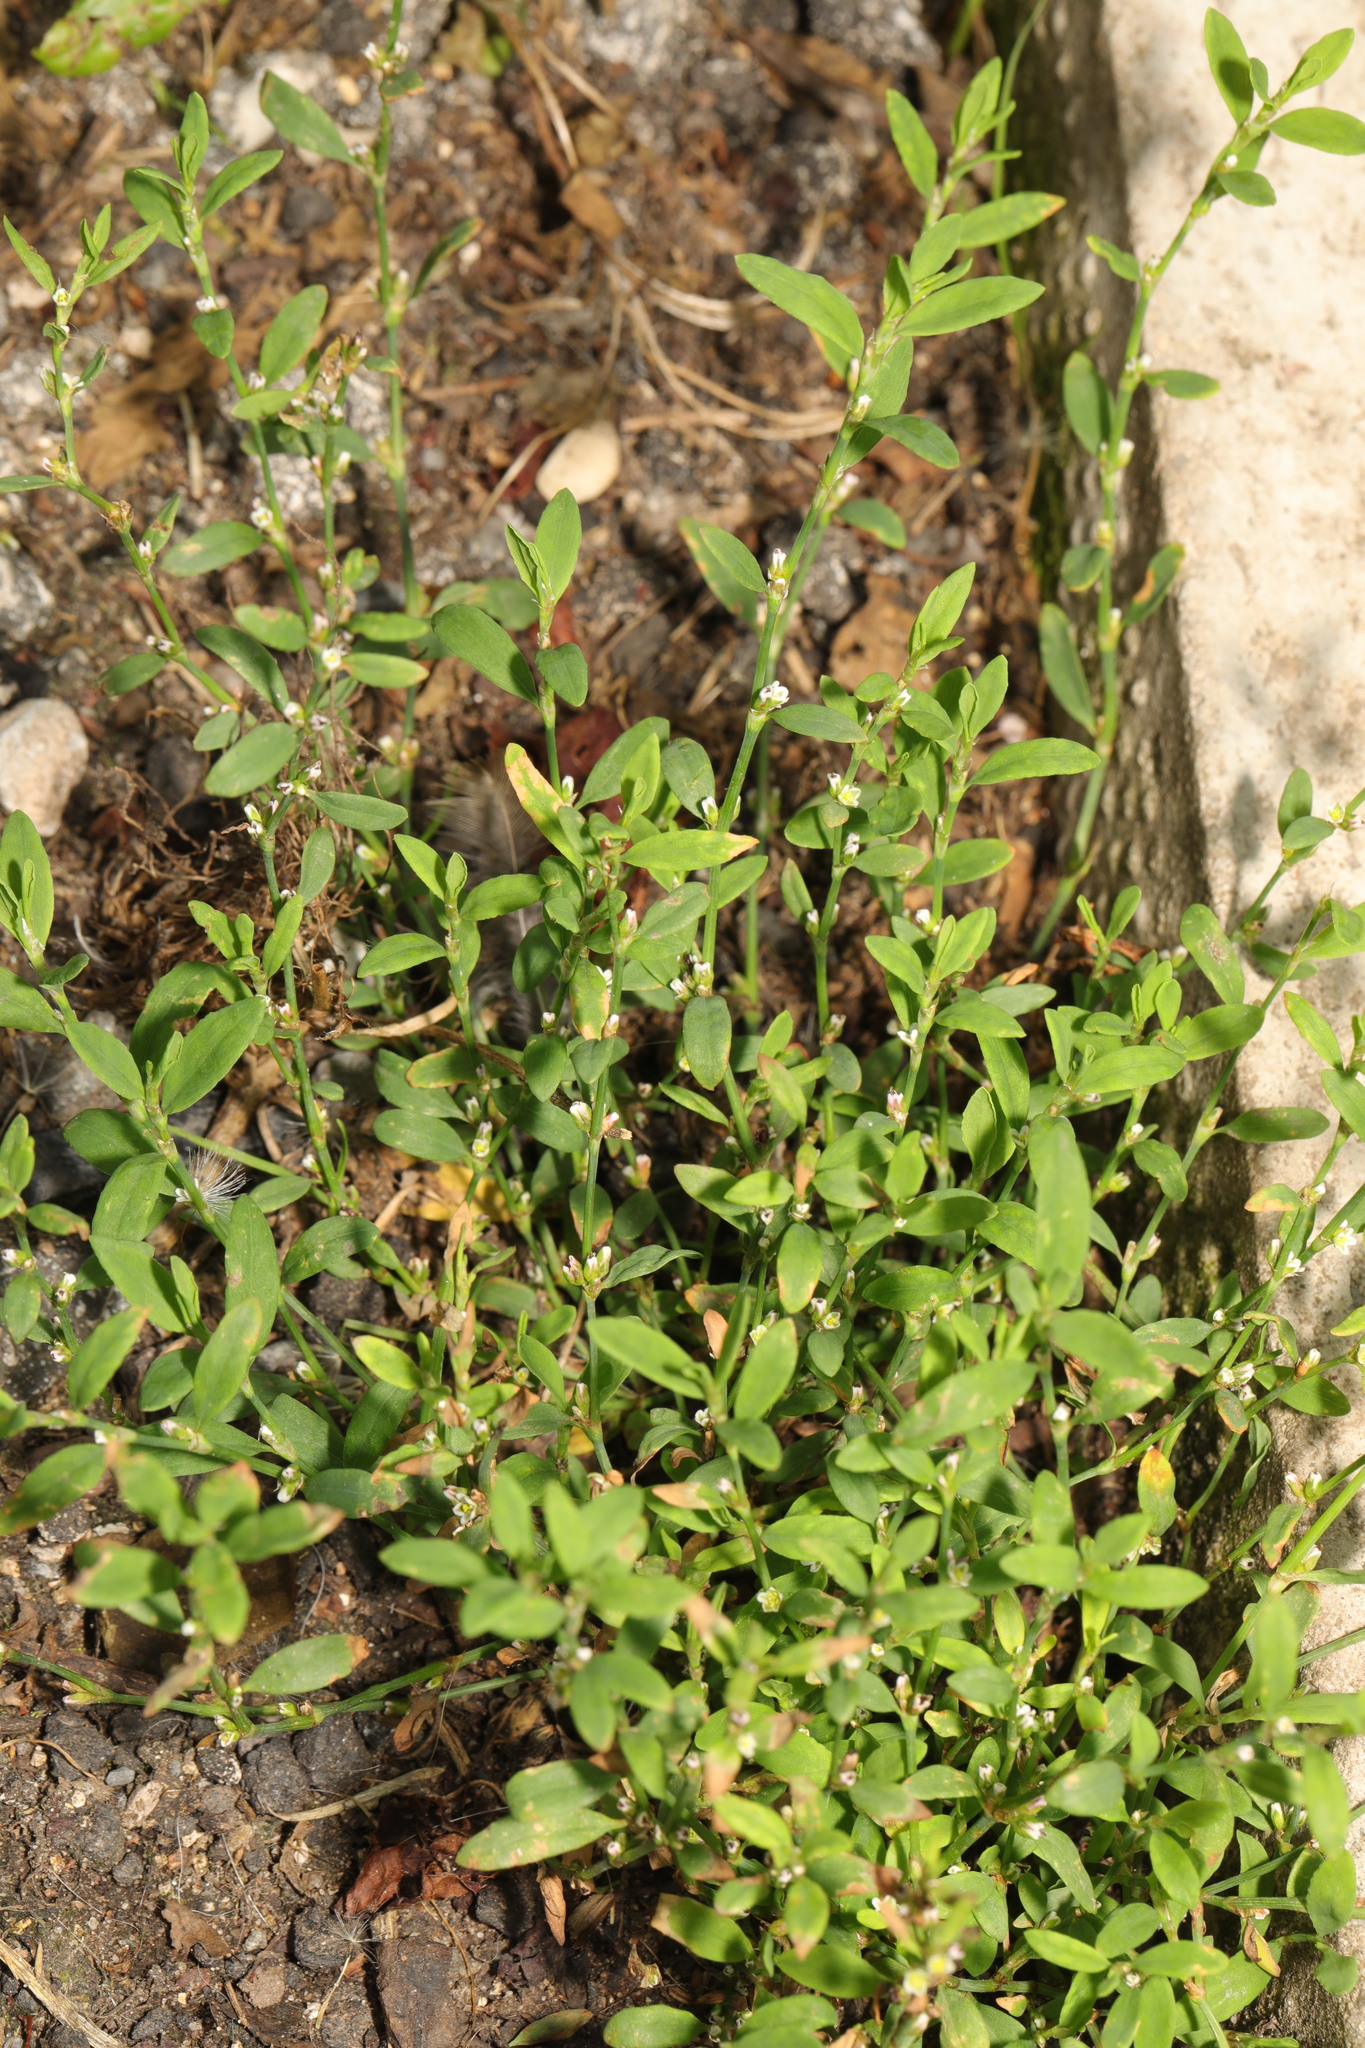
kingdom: Plantae
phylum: Tracheophyta
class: Magnoliopsida
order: Caryophyllales
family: Polygonaceae
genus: Polygonum
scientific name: Polygonum aviculare
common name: Prostrate knotweed
